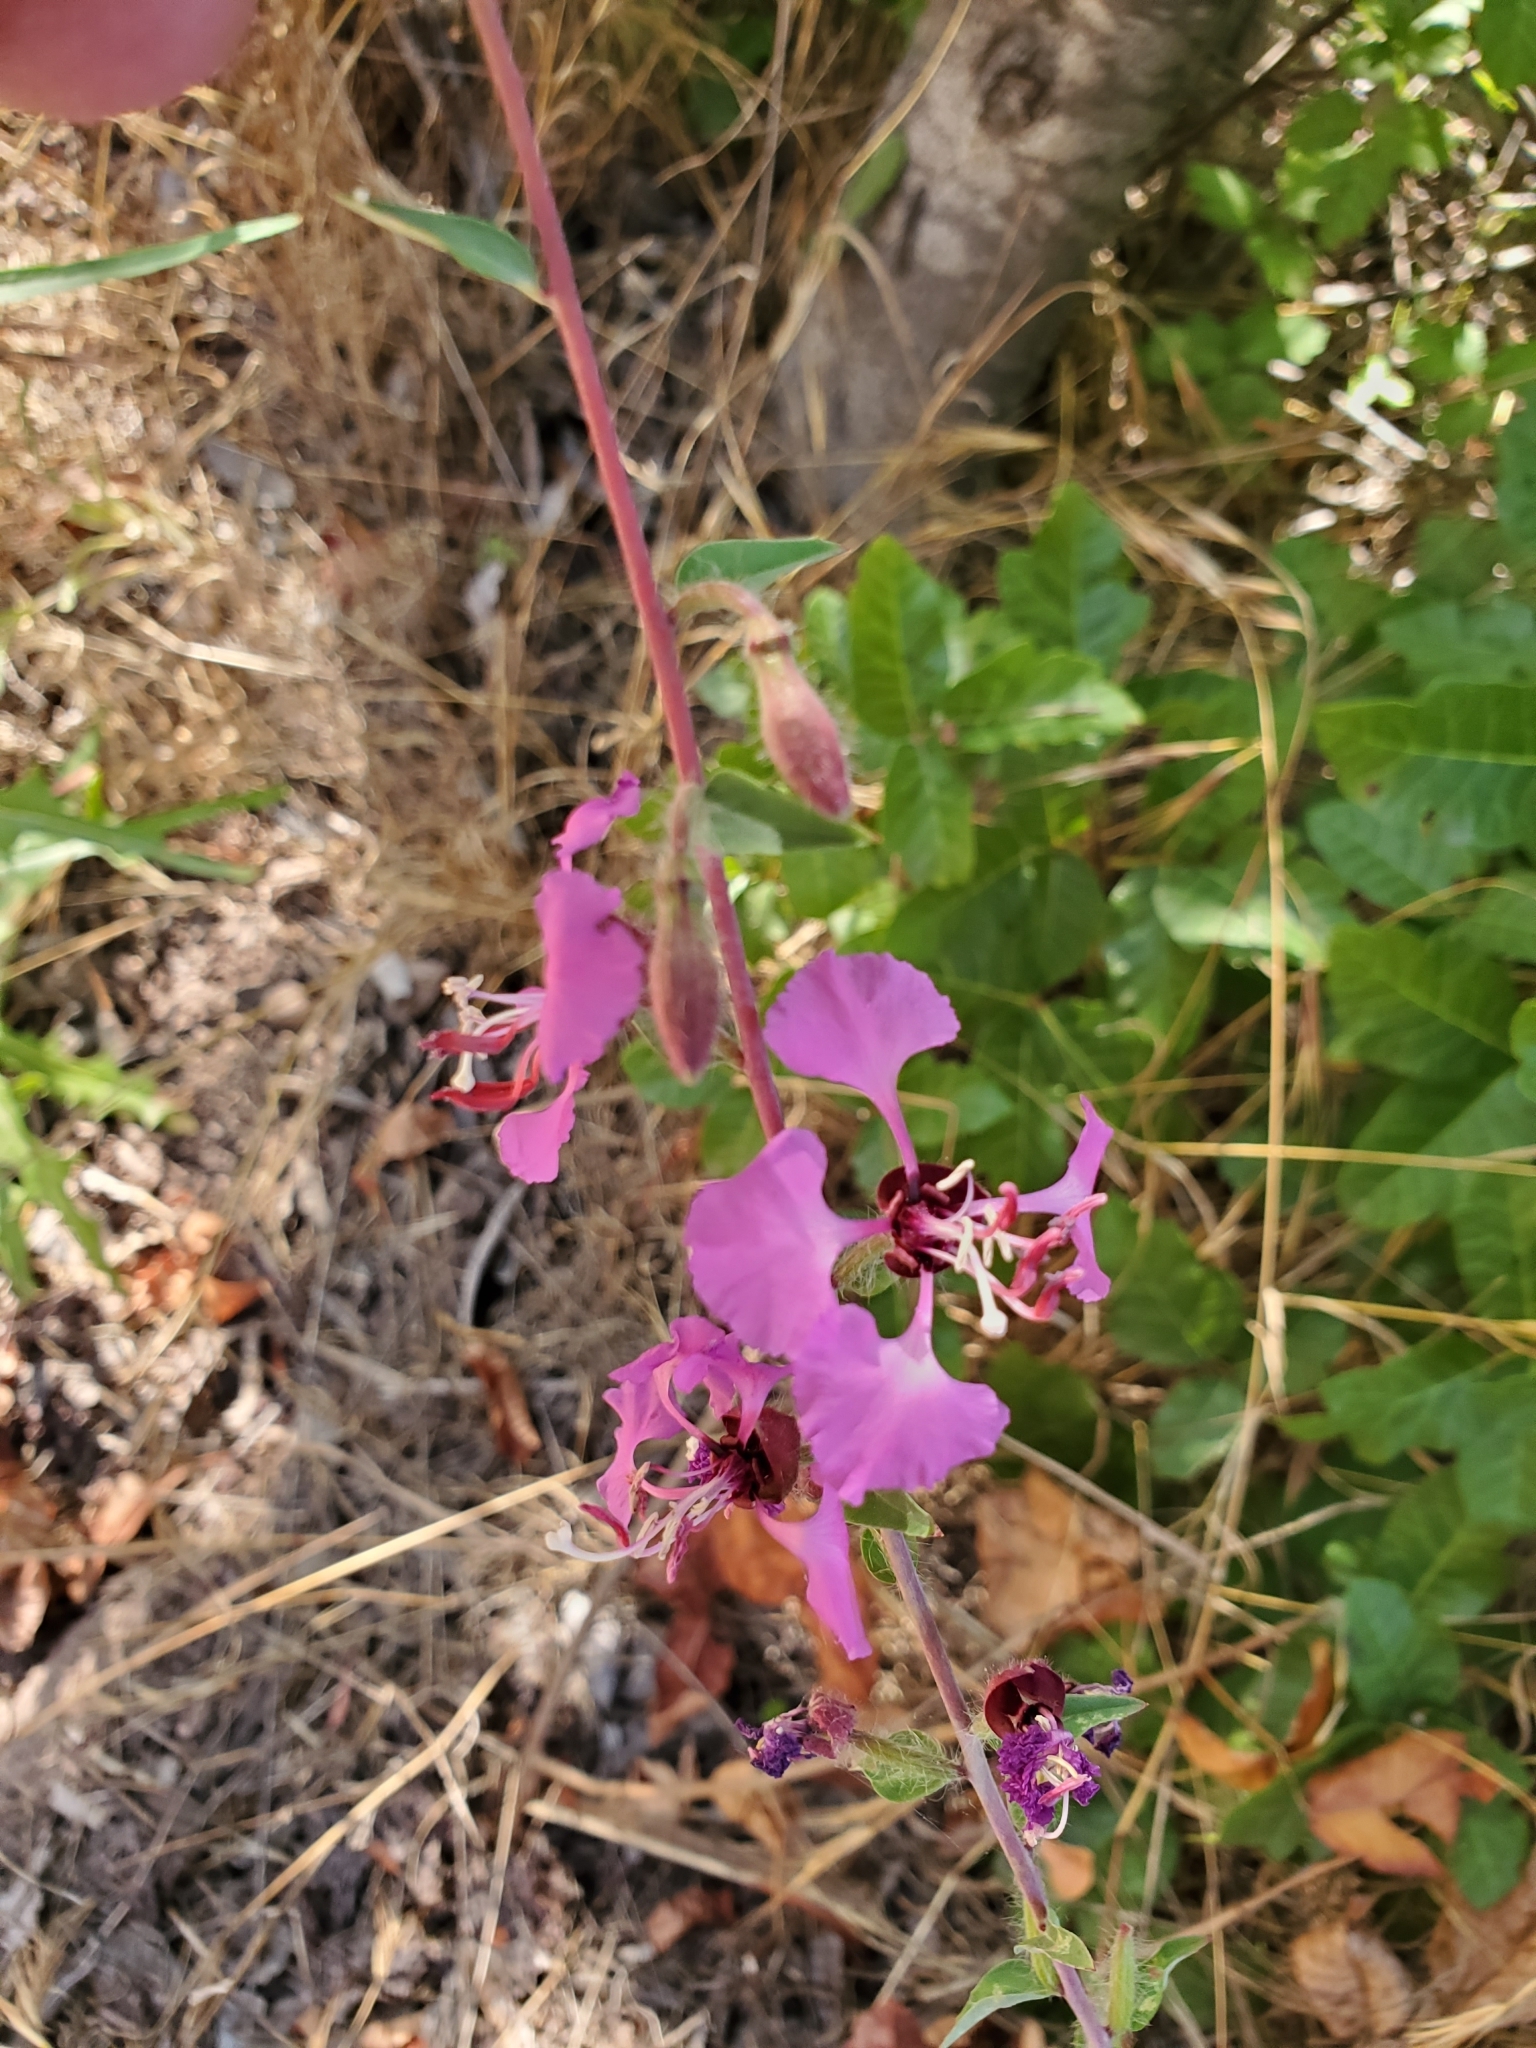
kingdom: Plantae
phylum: Tracheophyta
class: Magnoliopsida
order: Myrtales
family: Onagraceae
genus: Clarkia
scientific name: Clarkia unguiculata
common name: Clarkia
